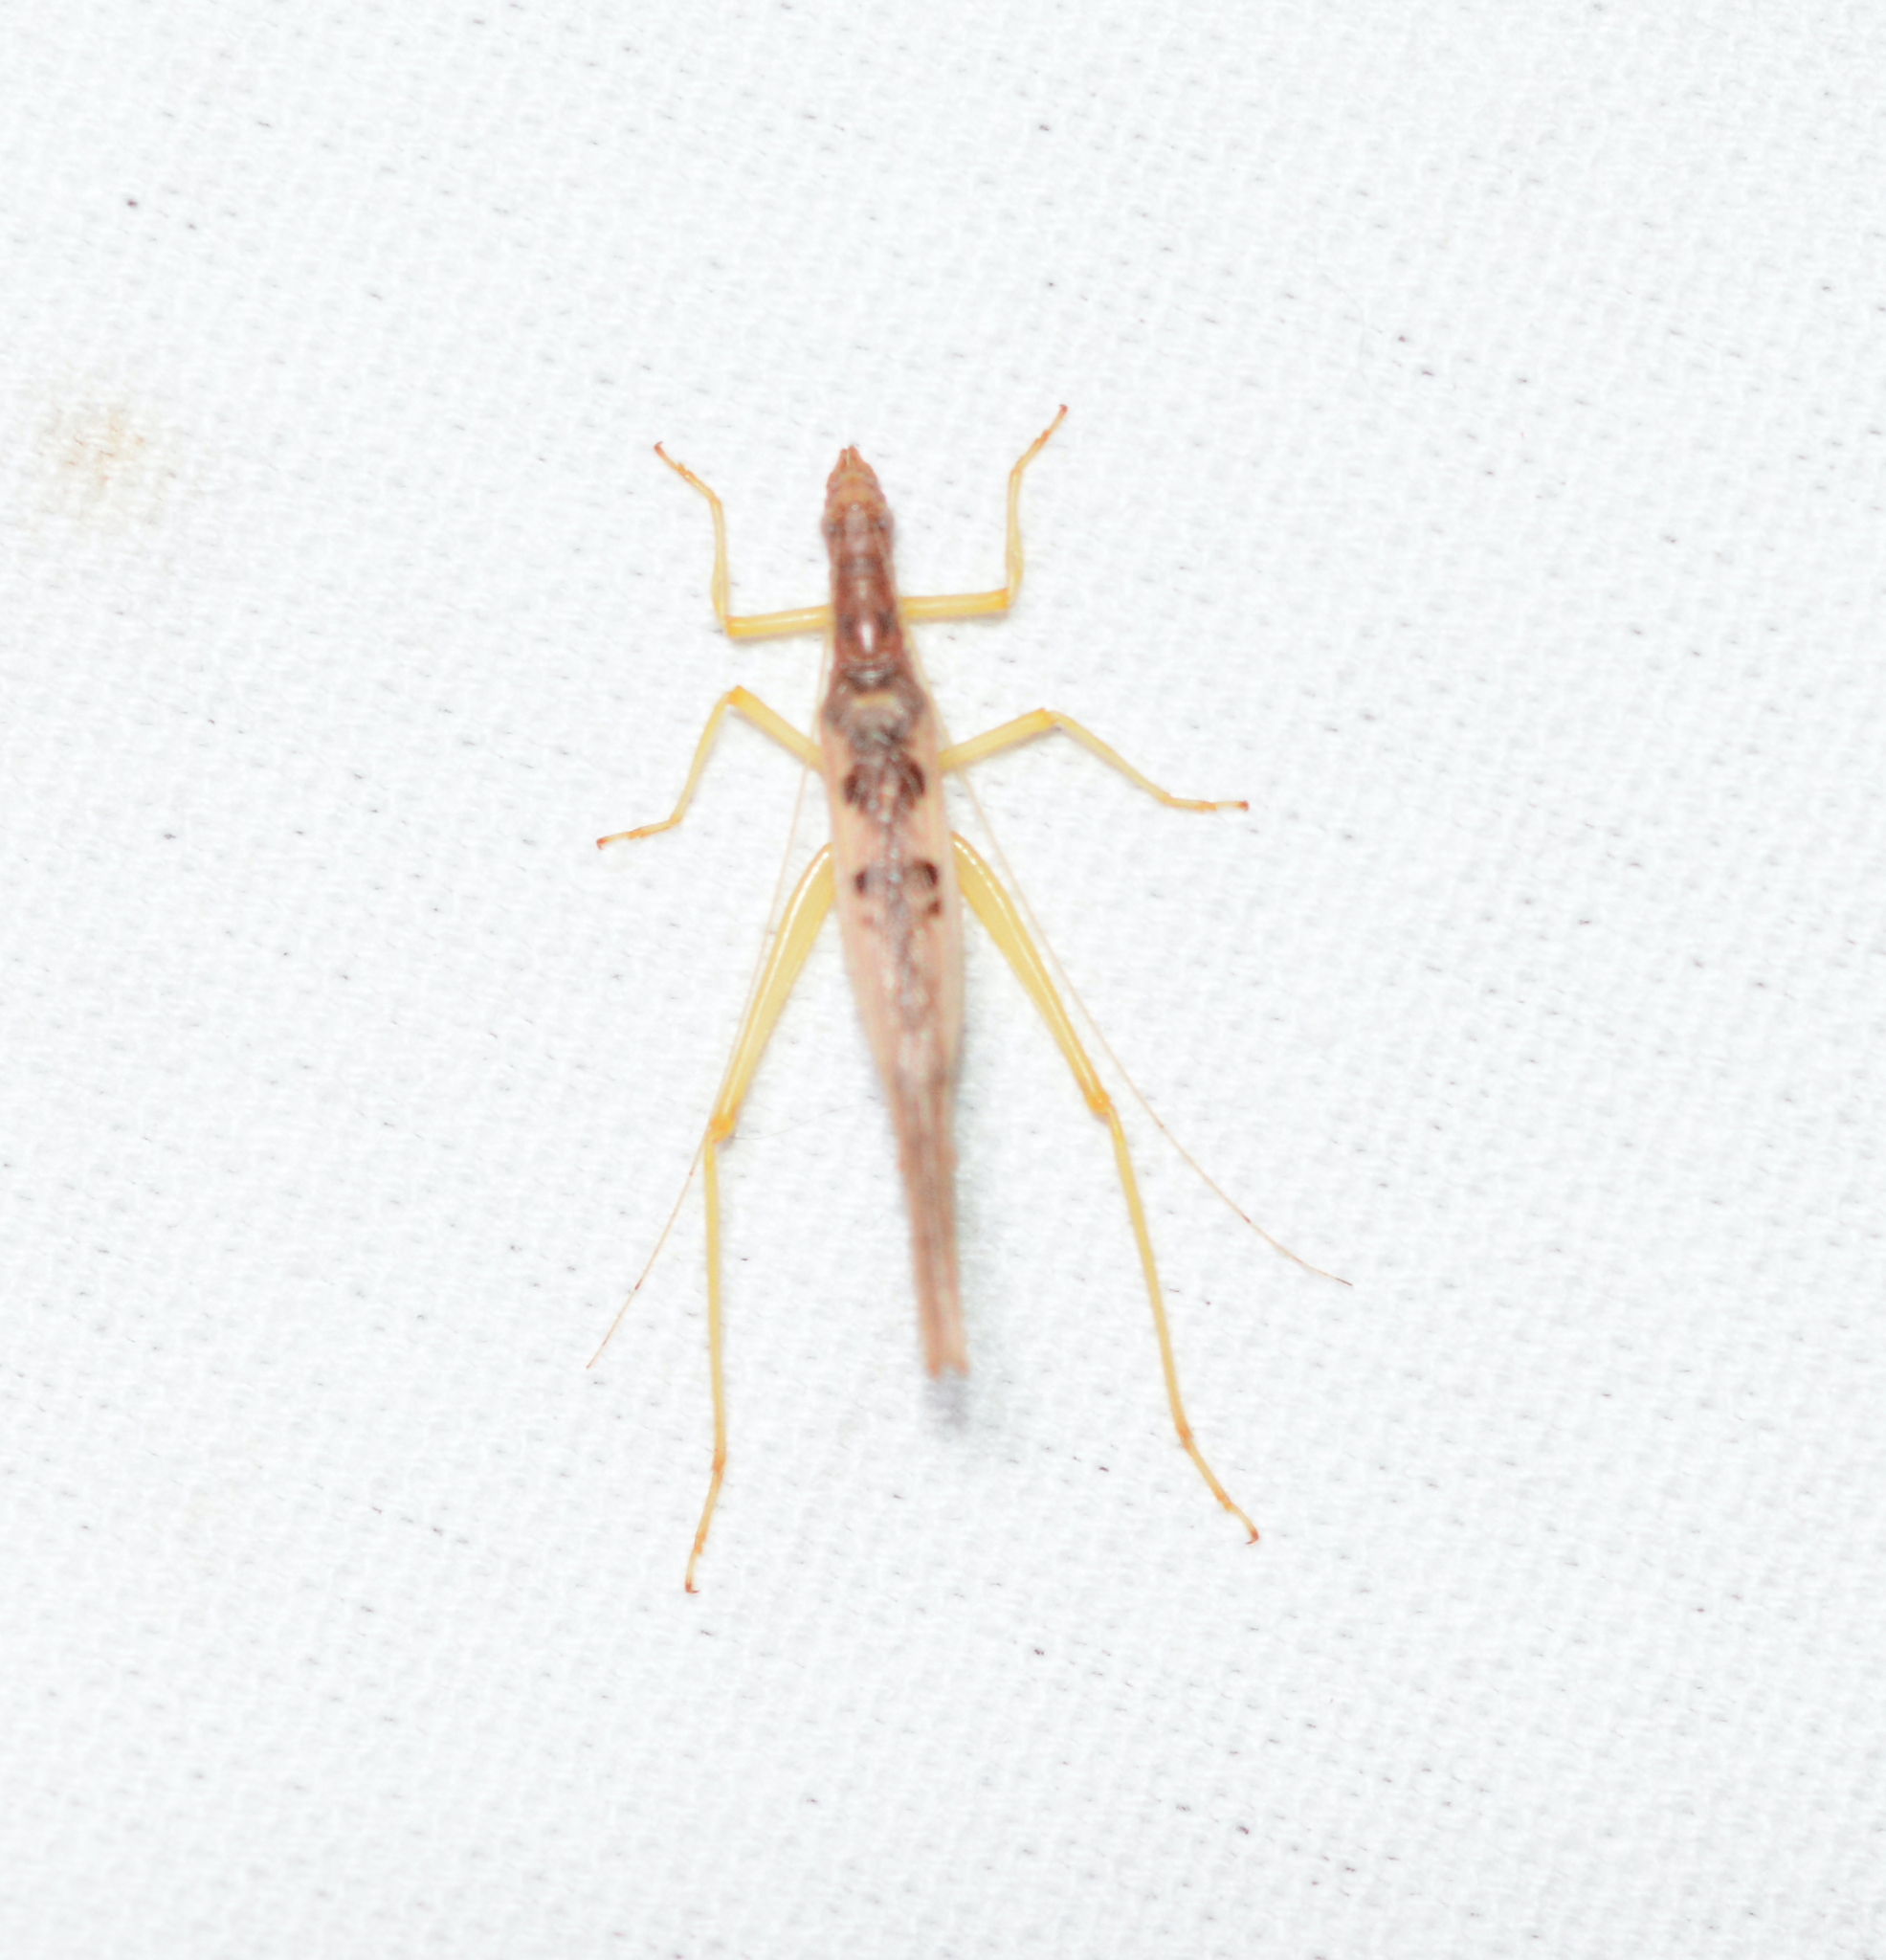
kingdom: Animalia
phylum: Arthropoda
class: Insecta
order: Orthoptera
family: Gryllidae
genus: Neoxabea
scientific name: Neoxabea bipunctata
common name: Two-spotted tree cricket
